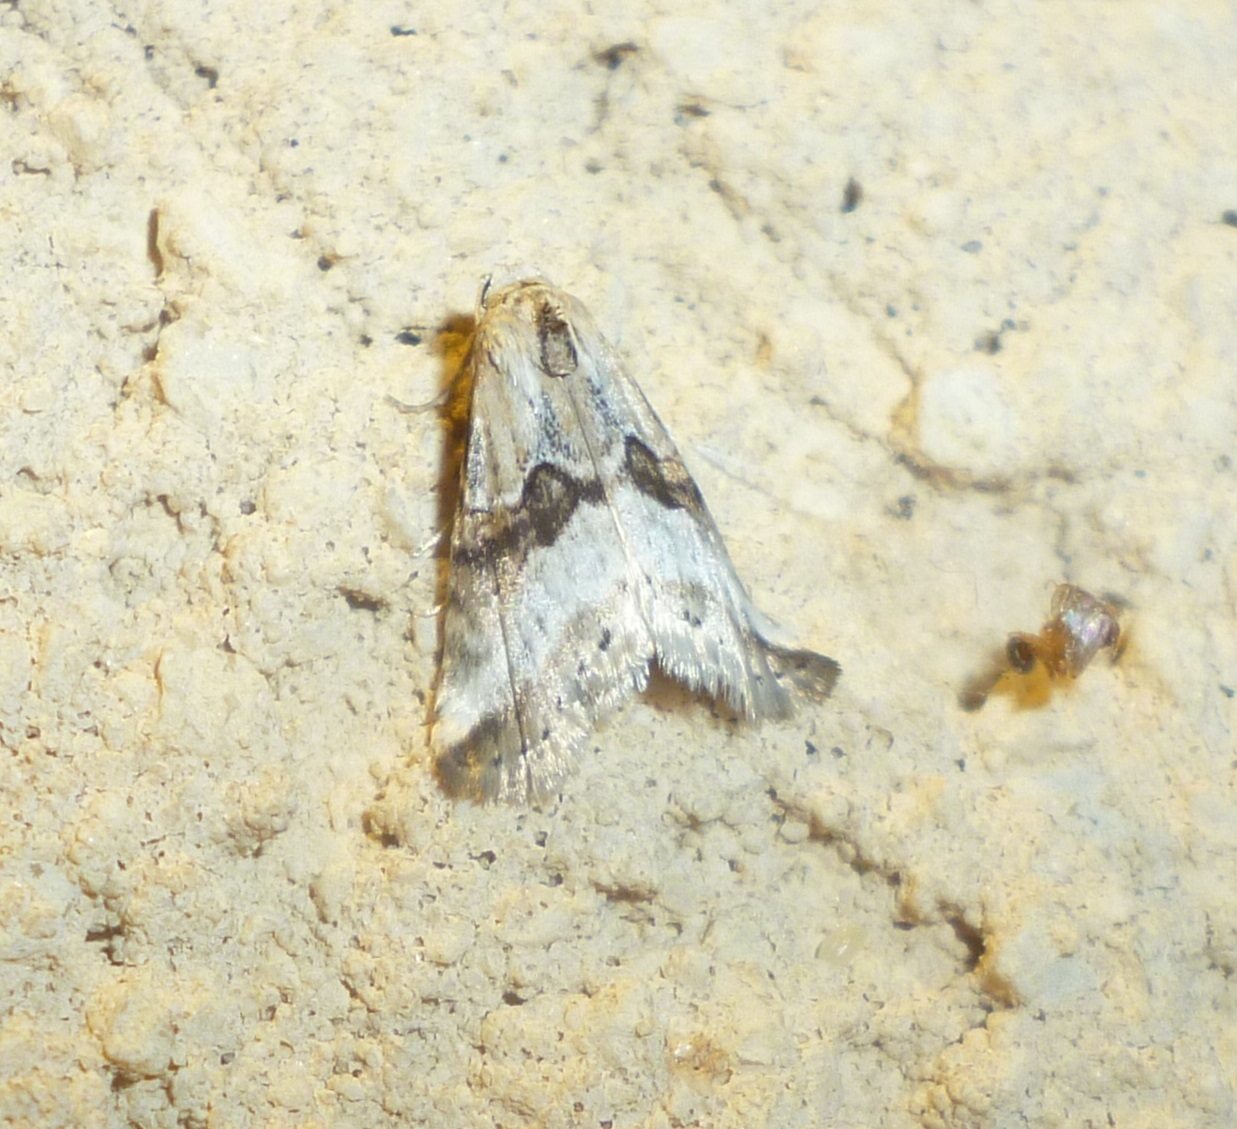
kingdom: Animalia
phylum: Arthropoda
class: Insecta
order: Lepidoptera
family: Erebidae
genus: Zebeeba
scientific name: Zebeeba falsalis
